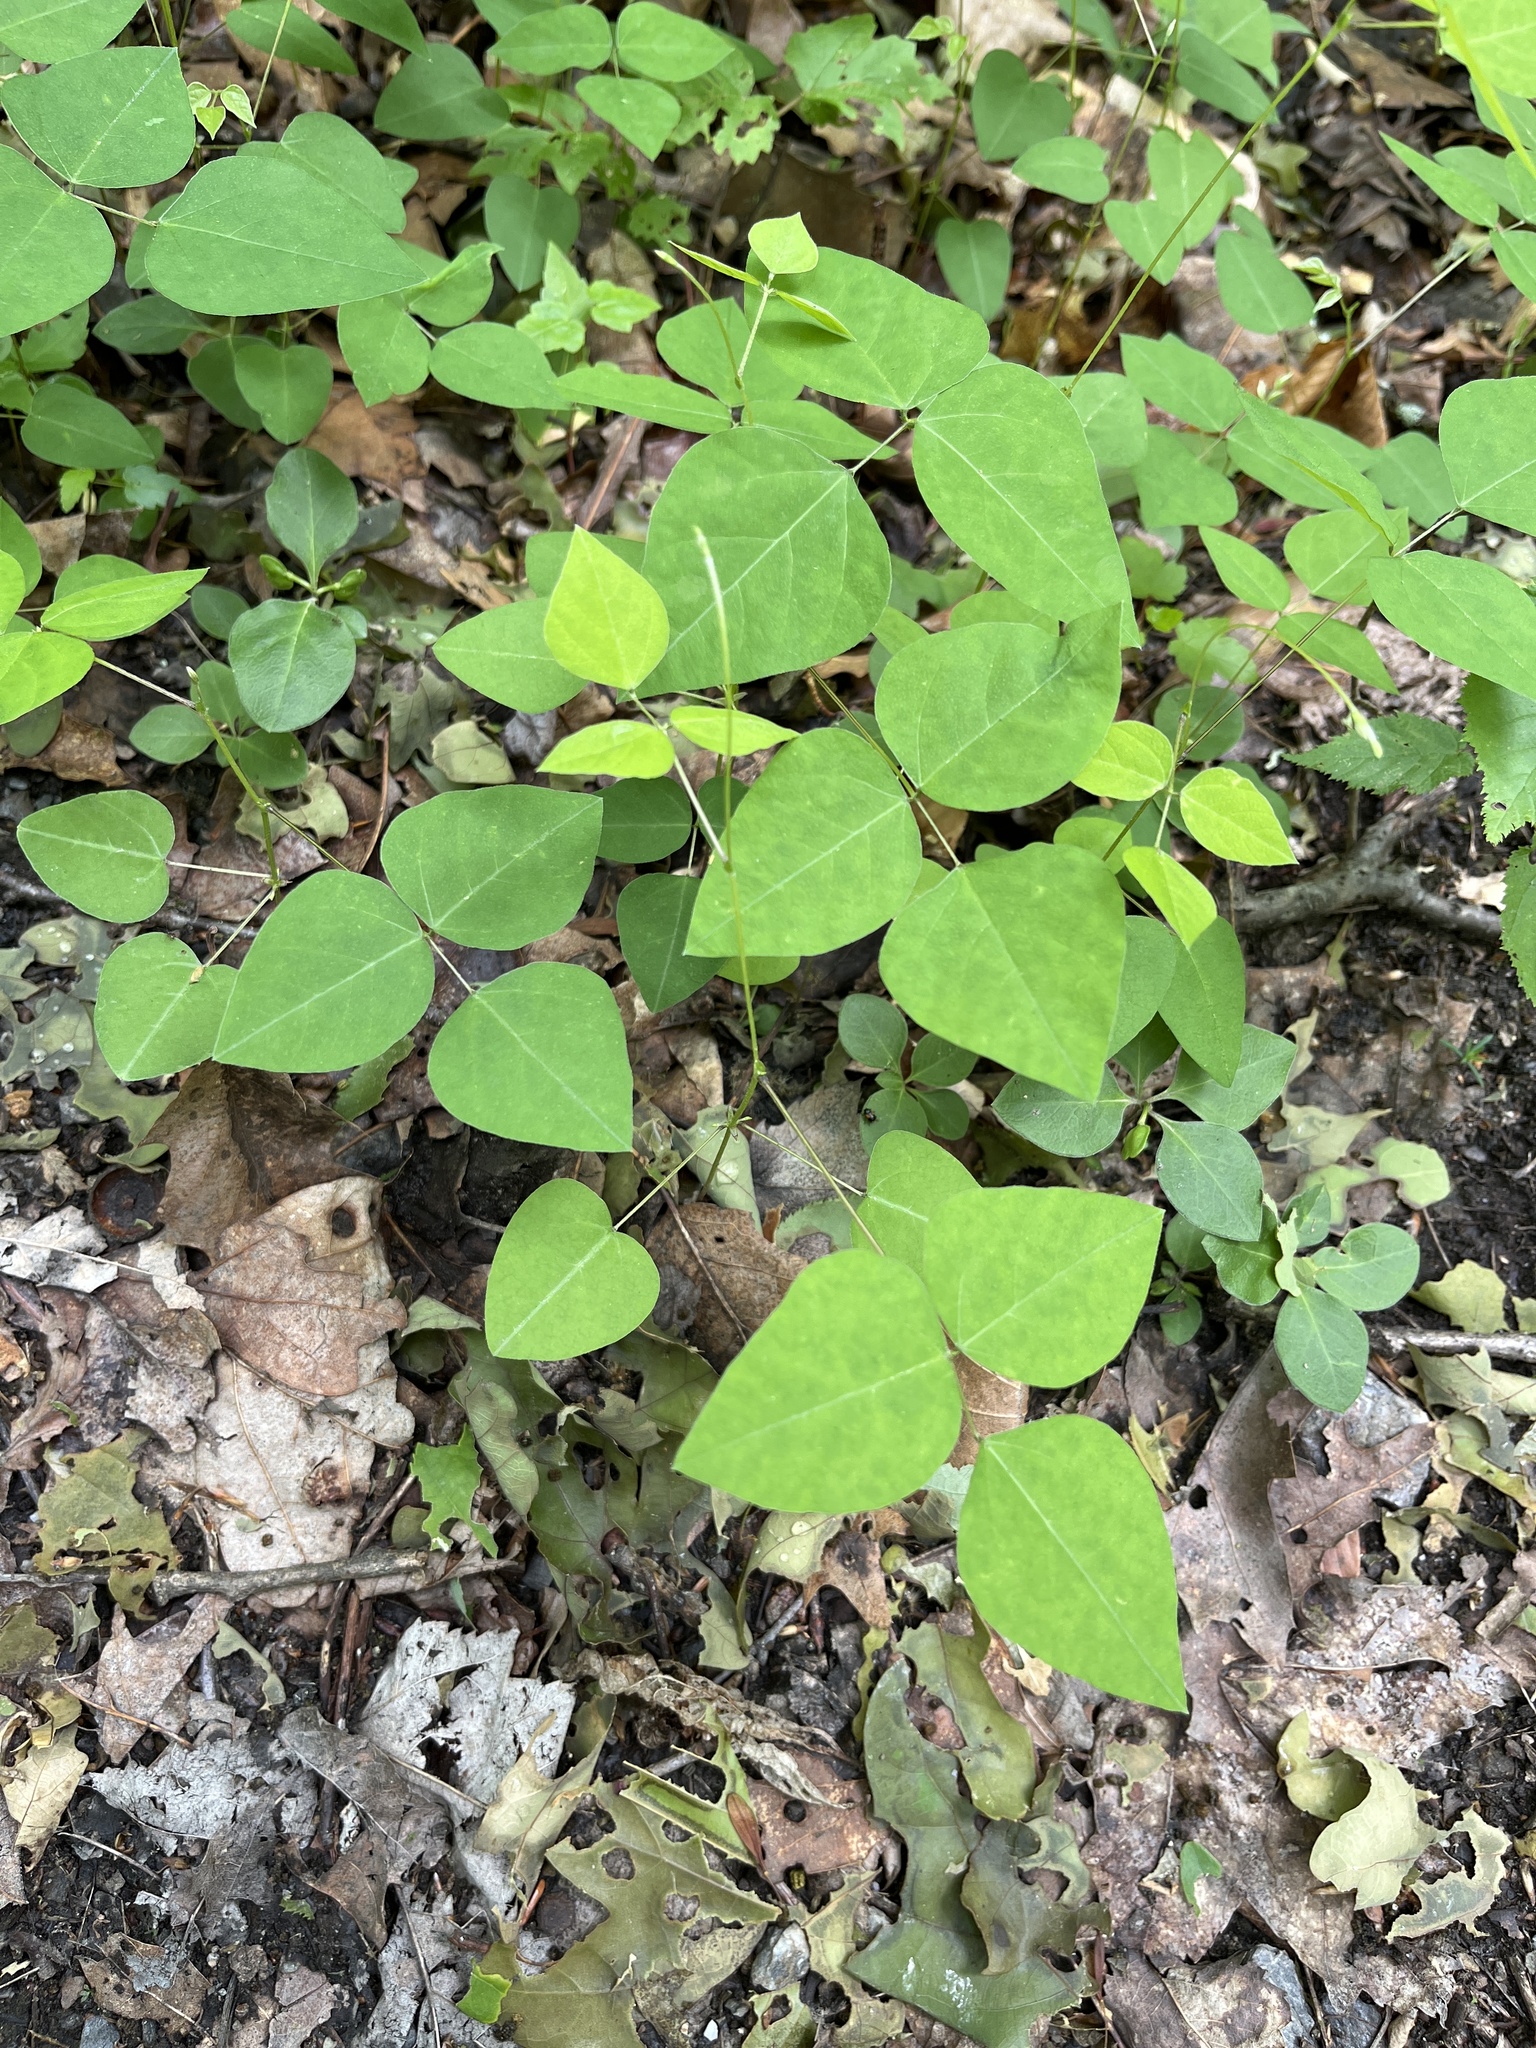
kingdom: Plantae
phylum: Tracheophyta
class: Magnoliopsida
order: Fabales
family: Fabaceae
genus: Amphicarpaea
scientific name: Amphicarpaea bracteata
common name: American hog peanut
